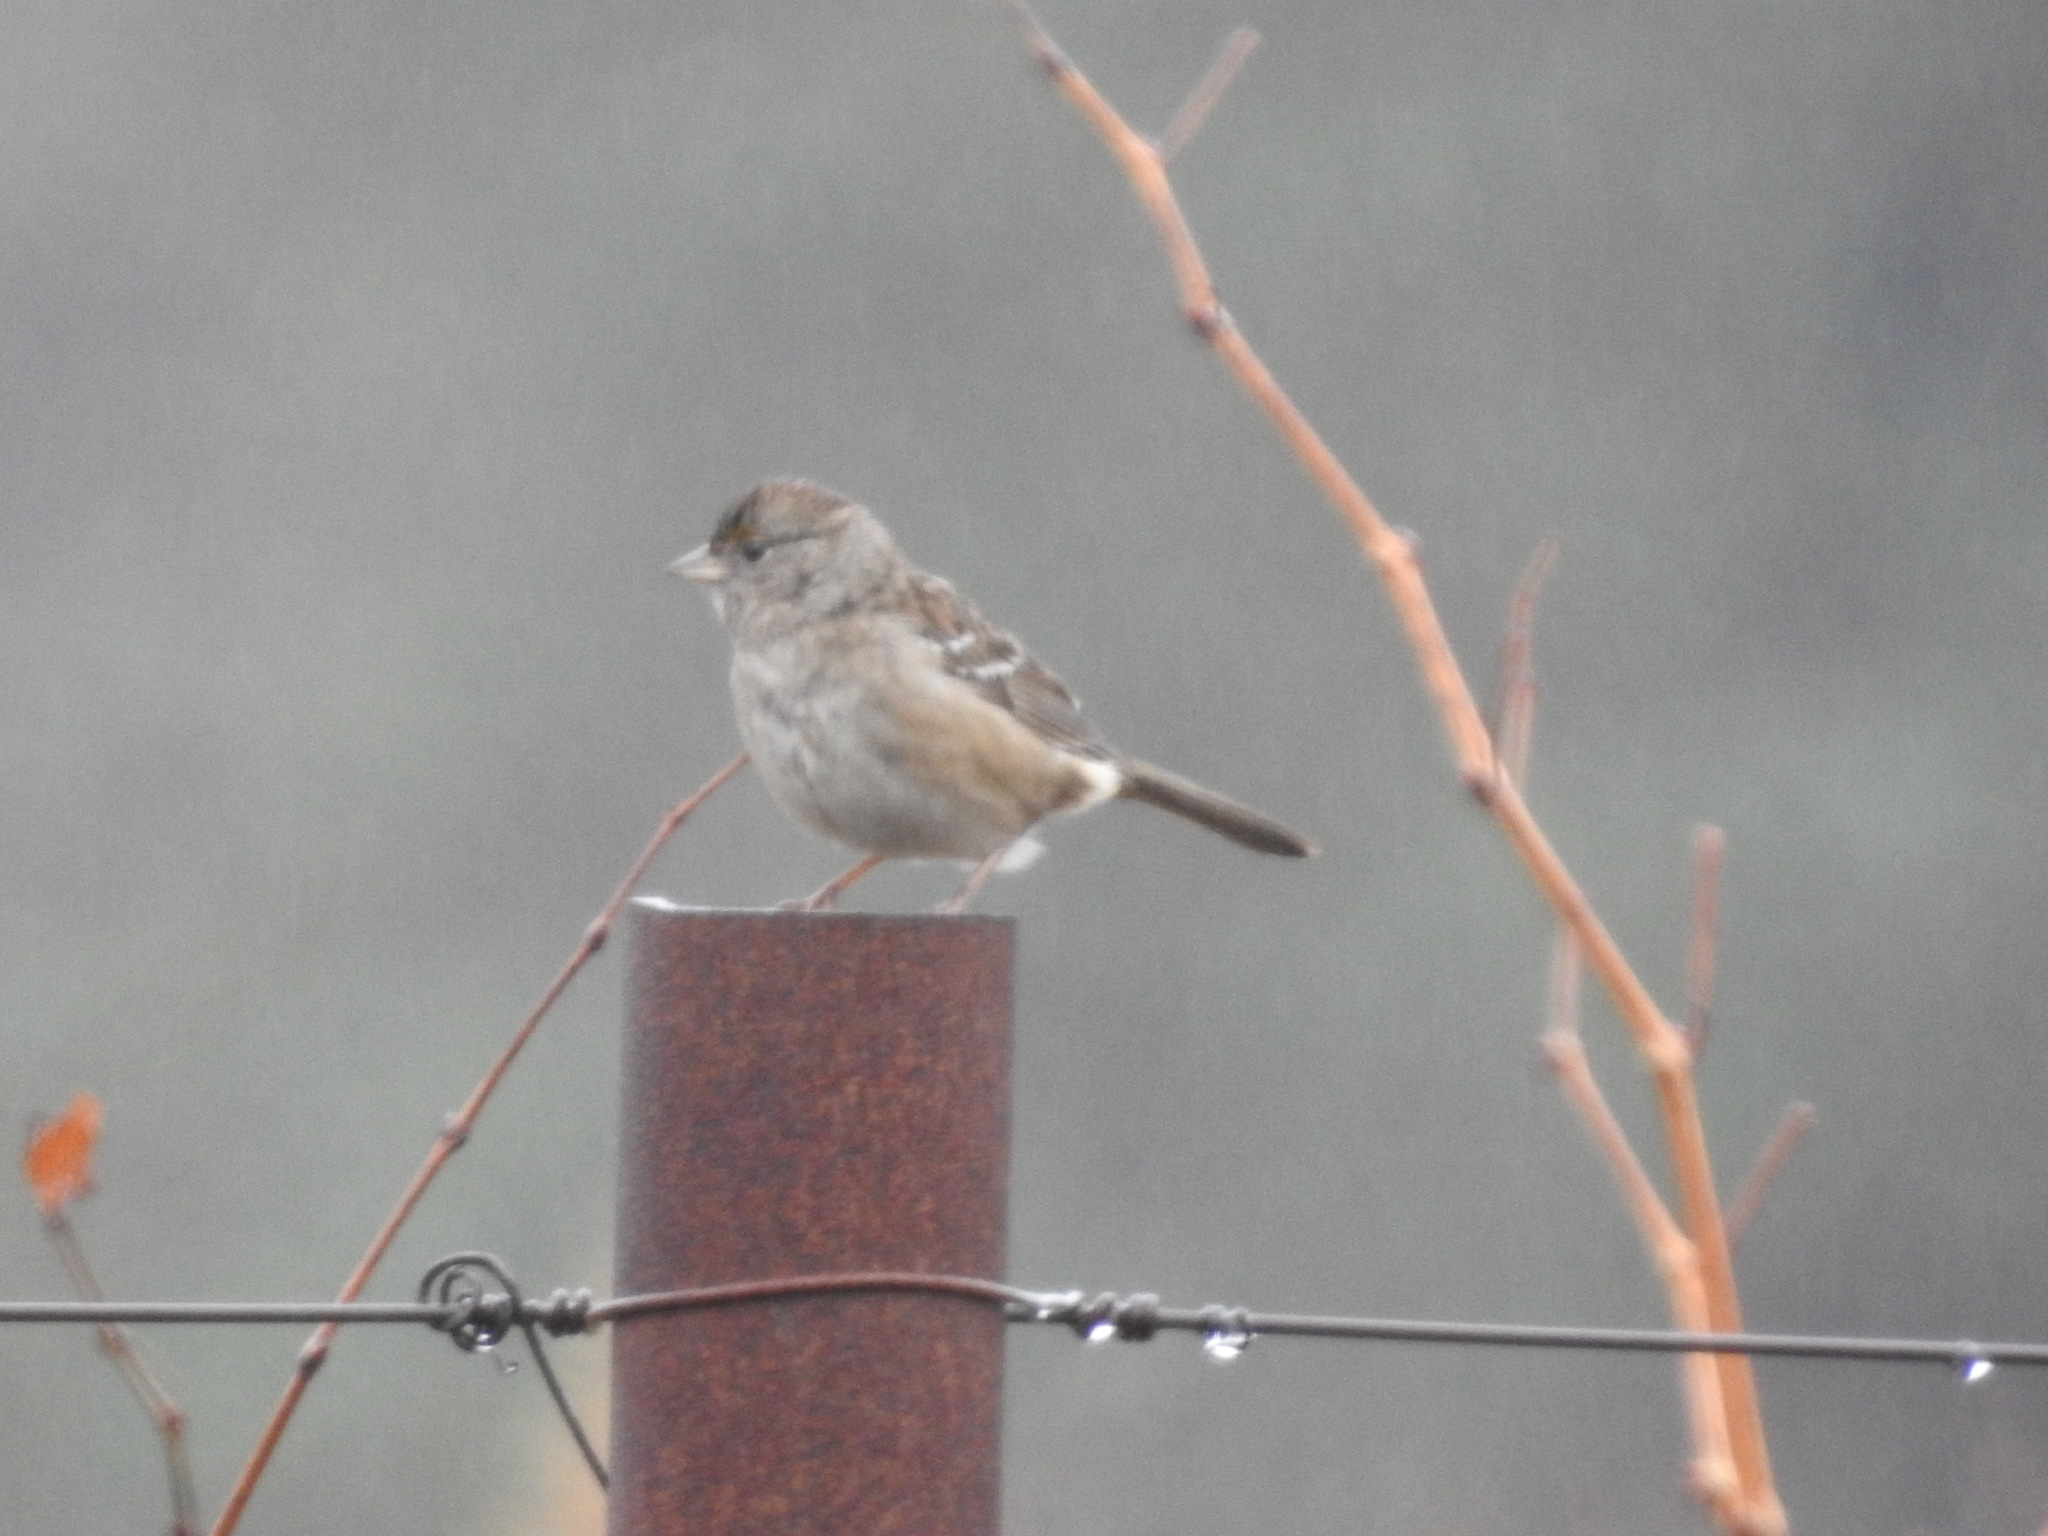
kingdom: Animalia
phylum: Chordata
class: Aves
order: Passeriformes
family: Passerellidae
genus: Zonotrichia
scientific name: Zonotrichia atricapilla
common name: Golden-crowned sparrow
